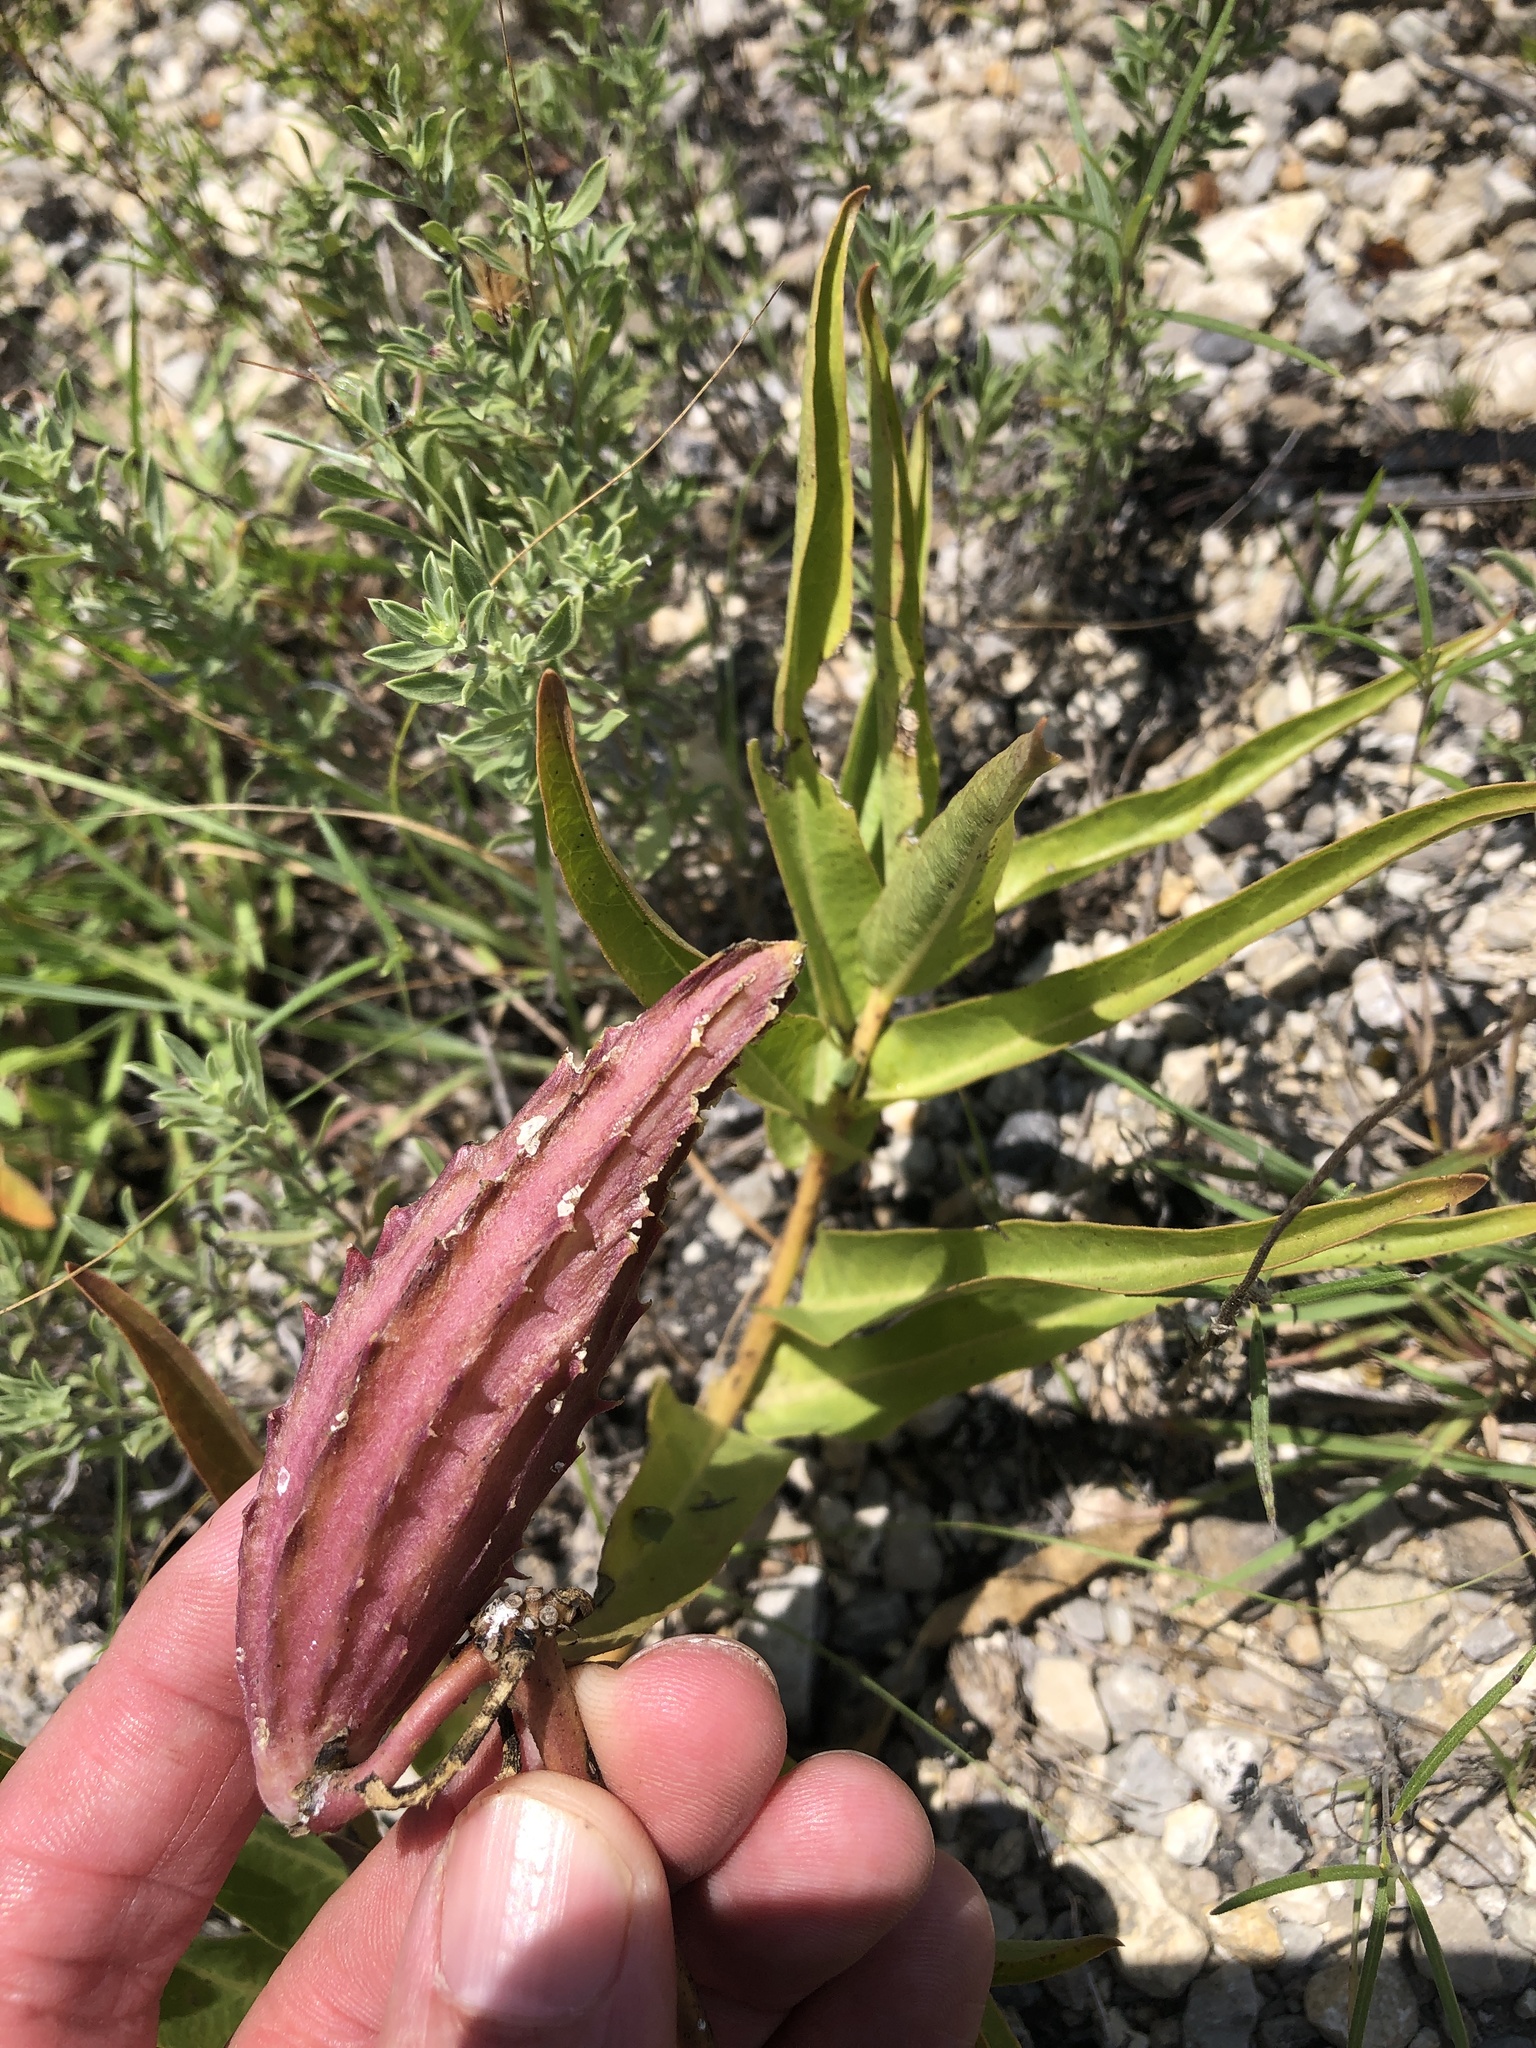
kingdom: Plantae
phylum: Tracheophyta
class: Magnoliopsida
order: Gentianales
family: Apocynaceae
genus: Asclepias
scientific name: Asclepias asperula
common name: Antelope horns
